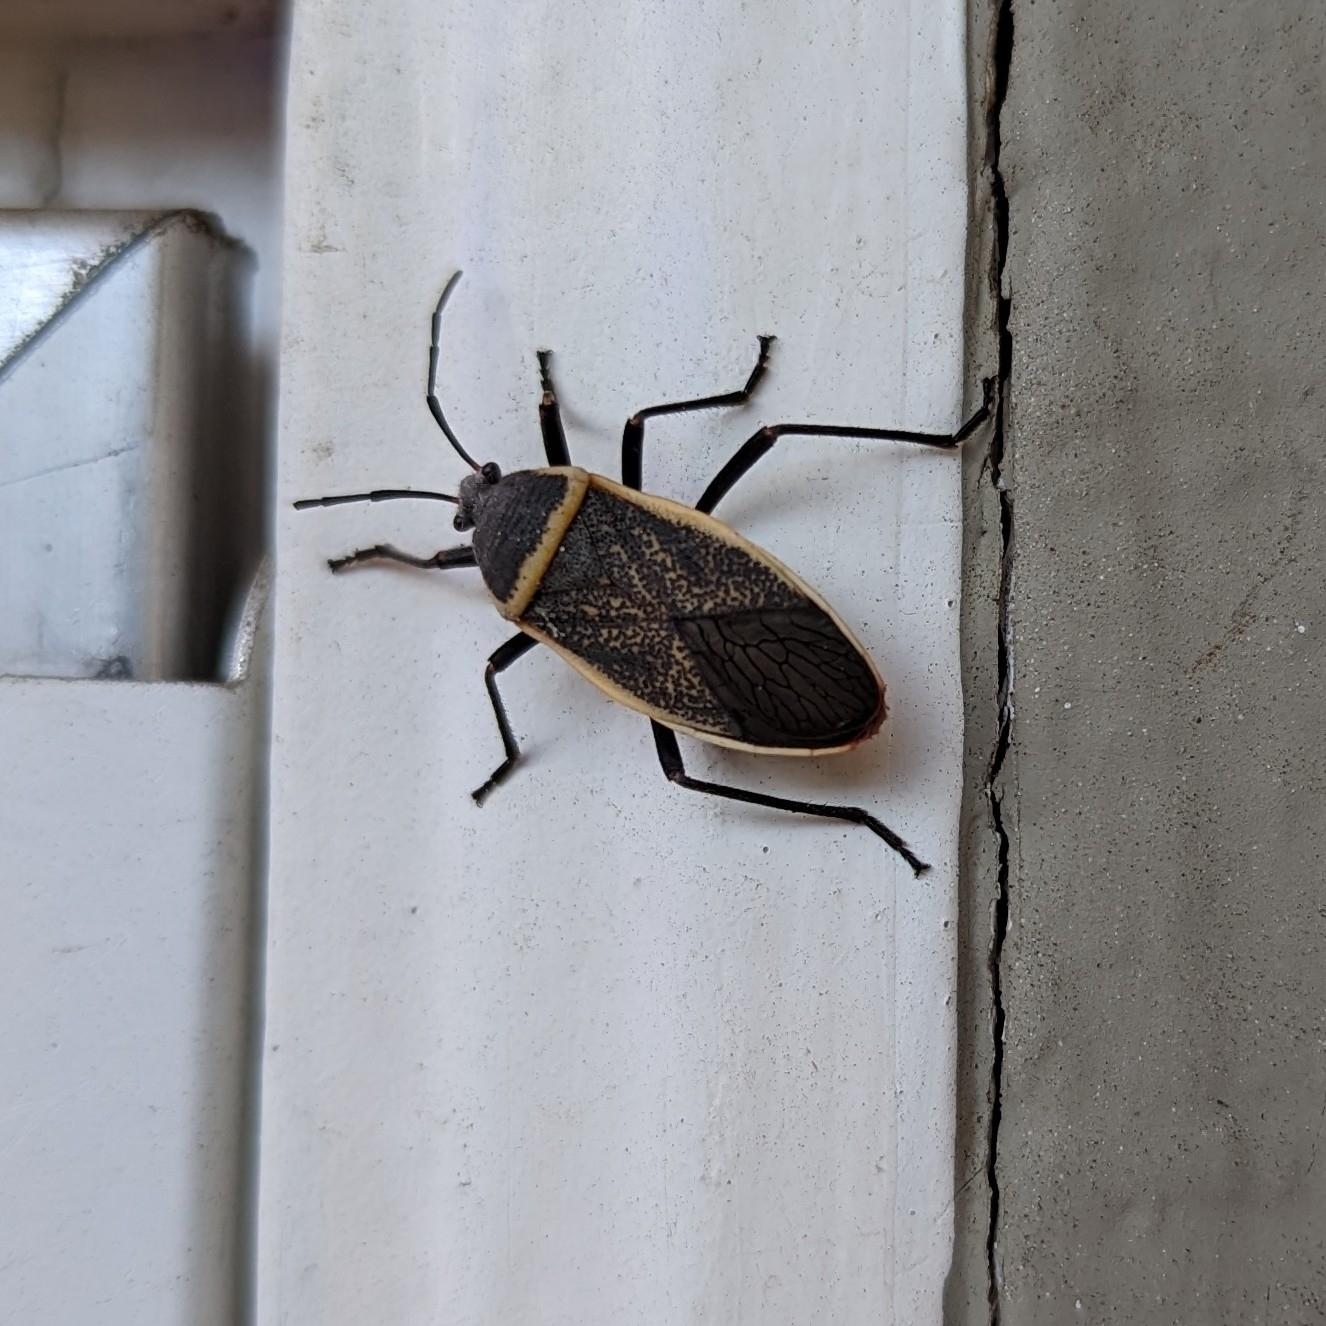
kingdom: Animalia
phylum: Arthropoda
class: Insecta
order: Hemiptera
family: Largidae
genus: Largus
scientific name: Largus californicus
